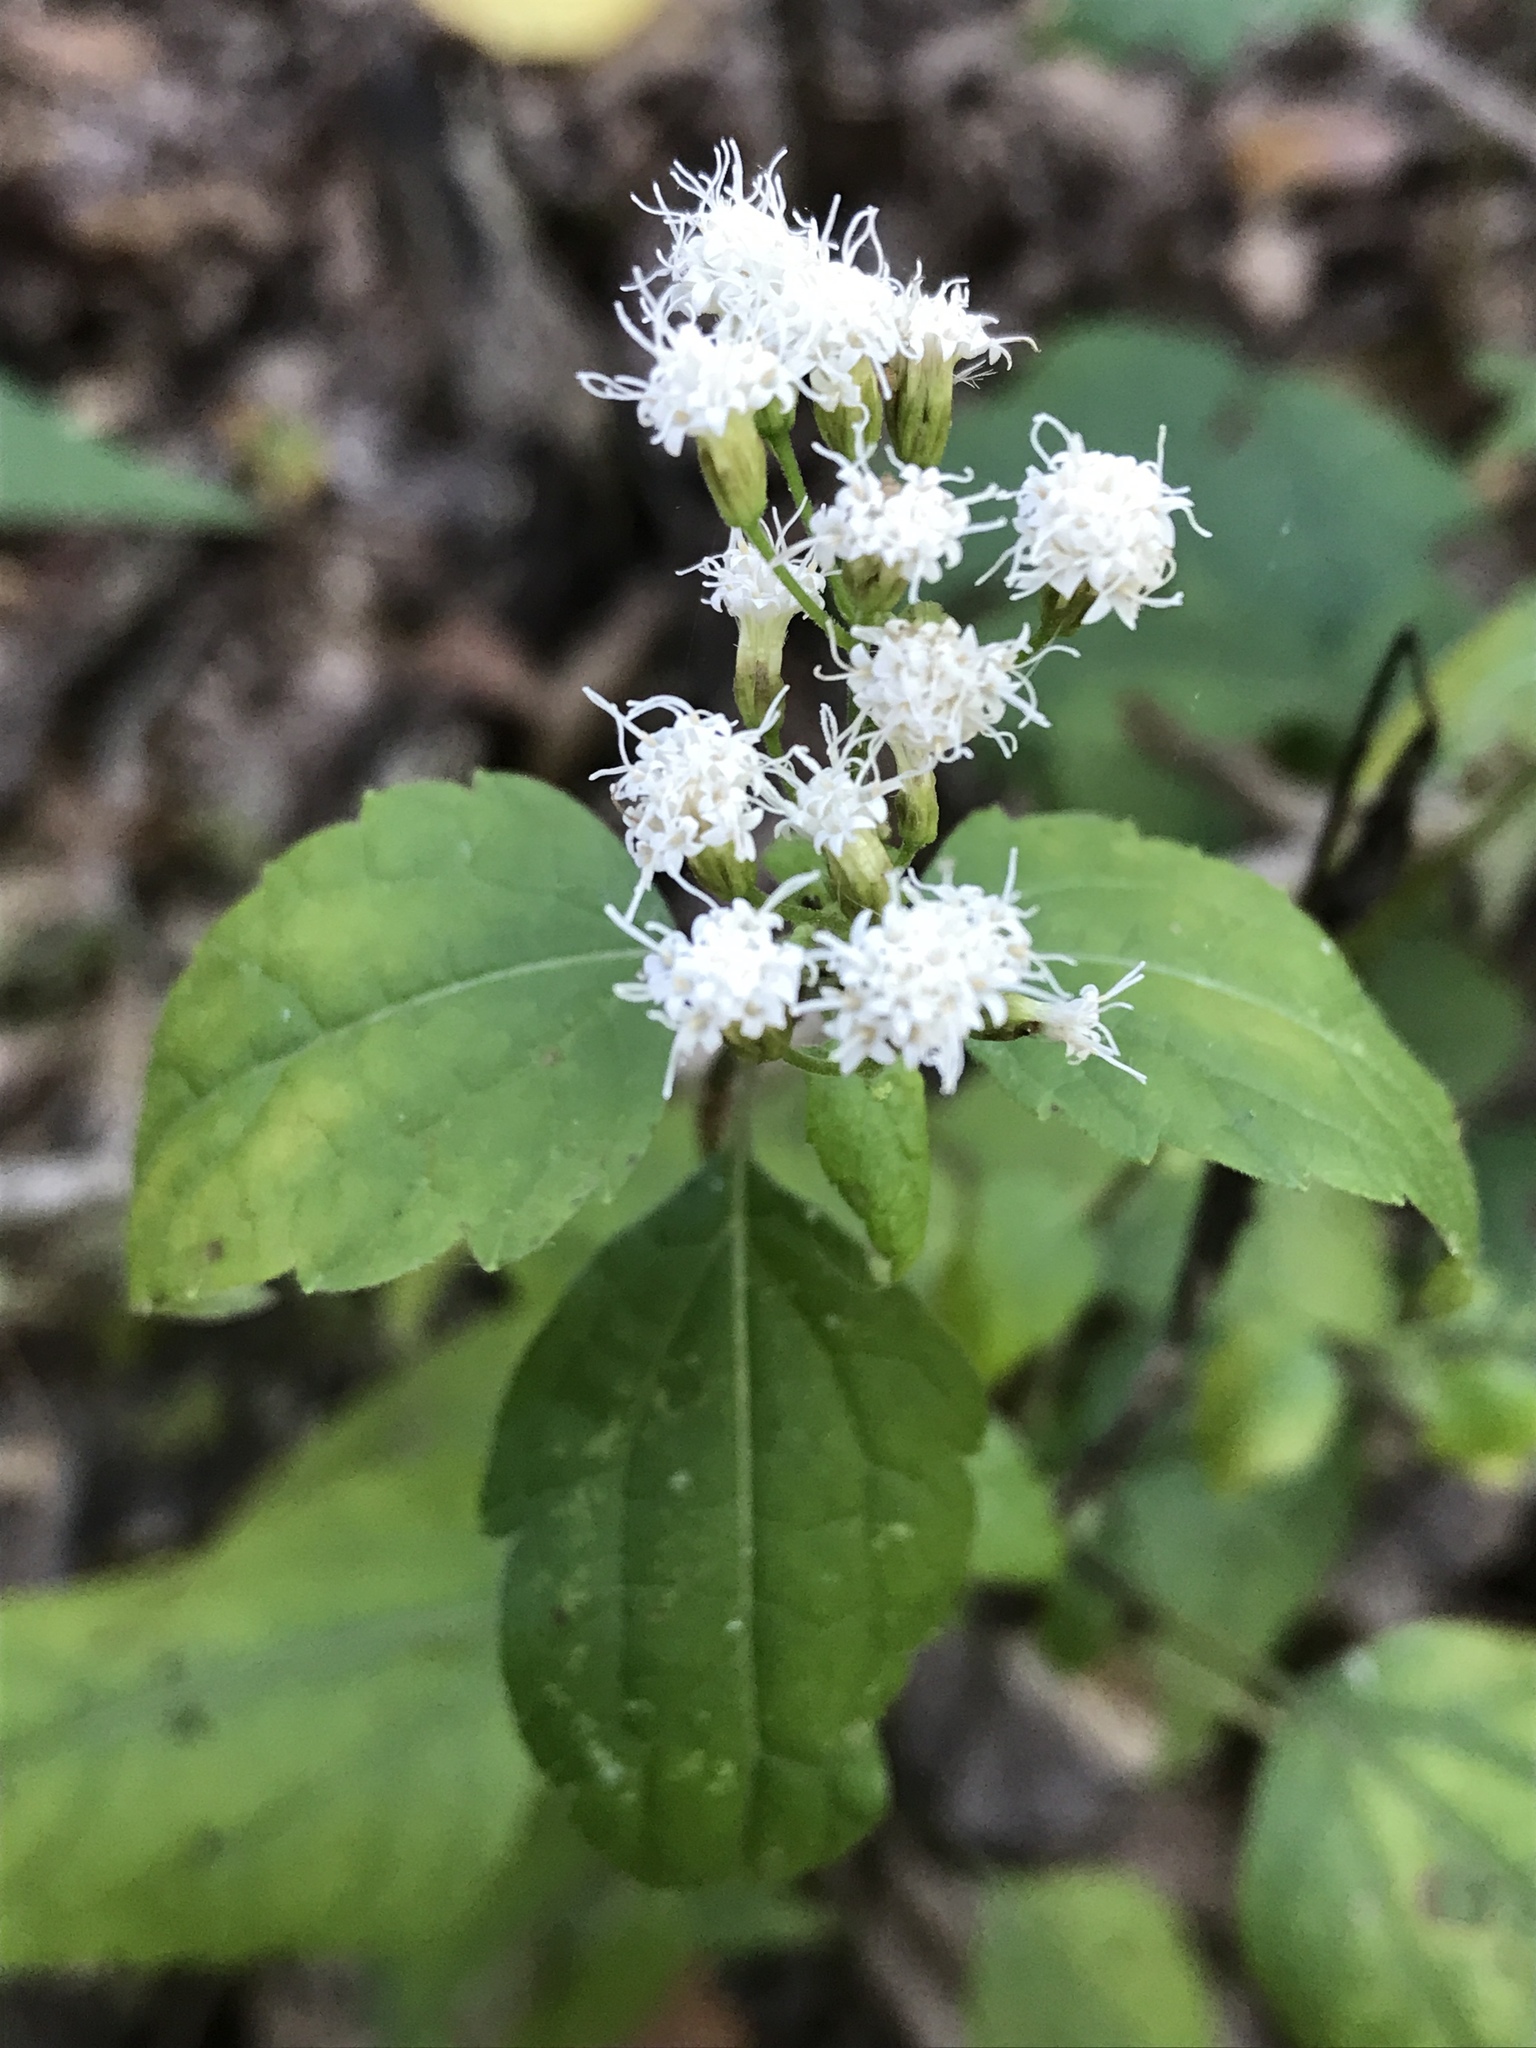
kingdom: Plantae
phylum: Tracheophyta
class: Magnoliopsida
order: Asterales
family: Asteraceae
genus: Ageratina
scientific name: Ageratina altissima
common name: White snakeroot
